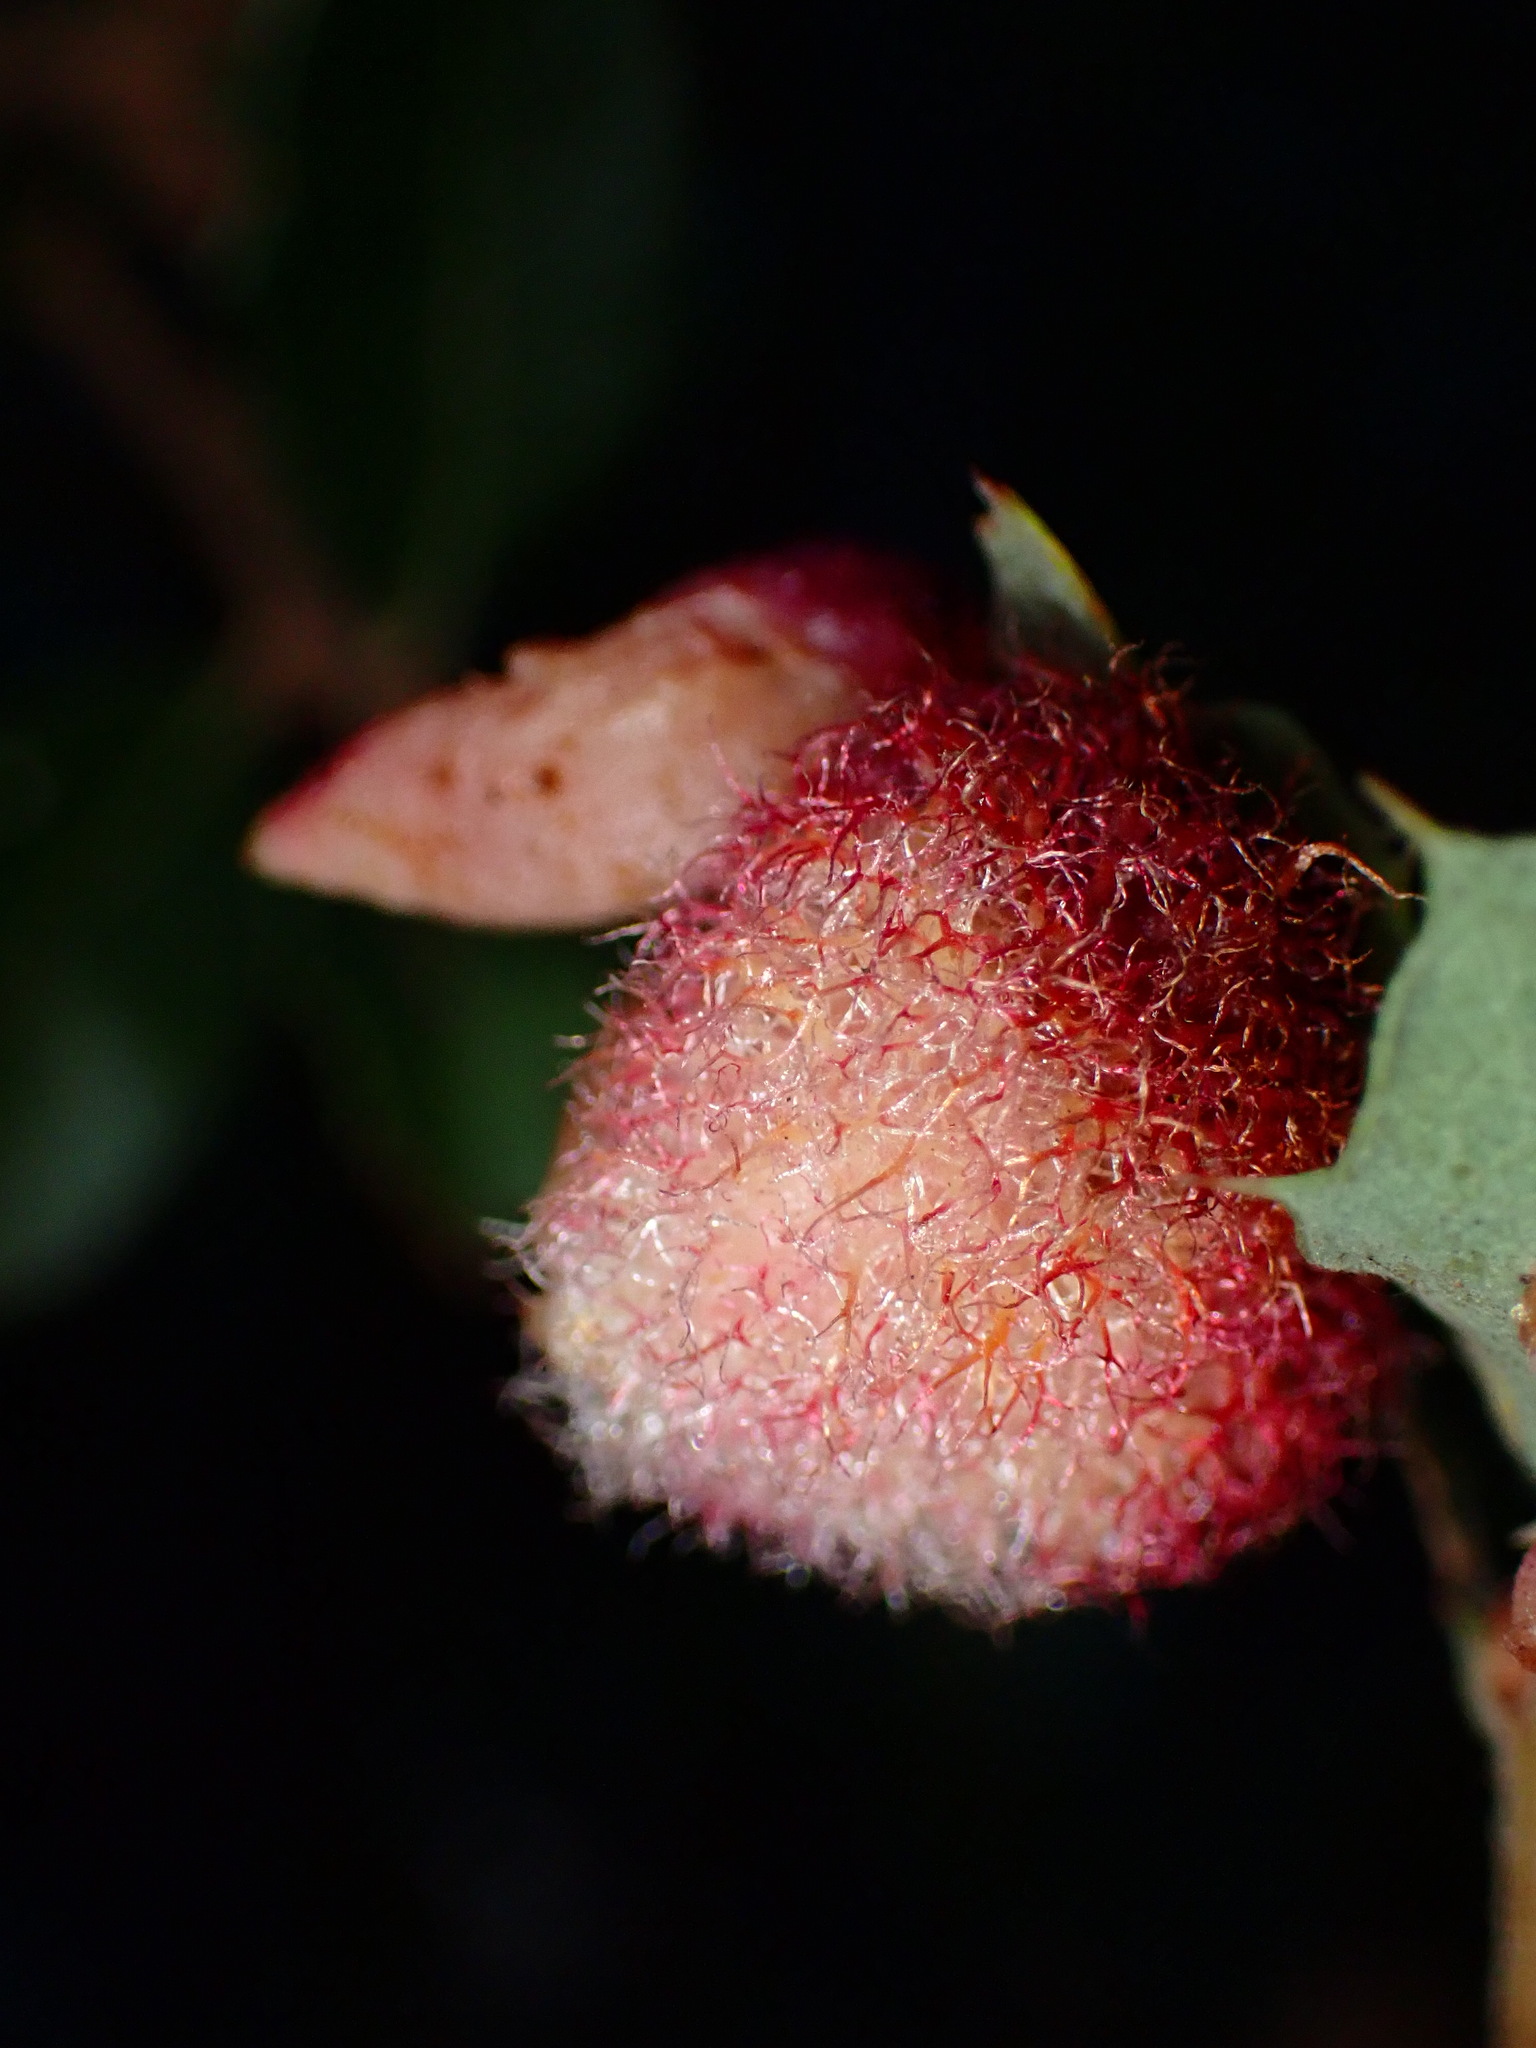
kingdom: Animalia
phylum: Arthropoda
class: Insecta
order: Hymenoptera
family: Cynipidae
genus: Andricus
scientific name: Andricus
